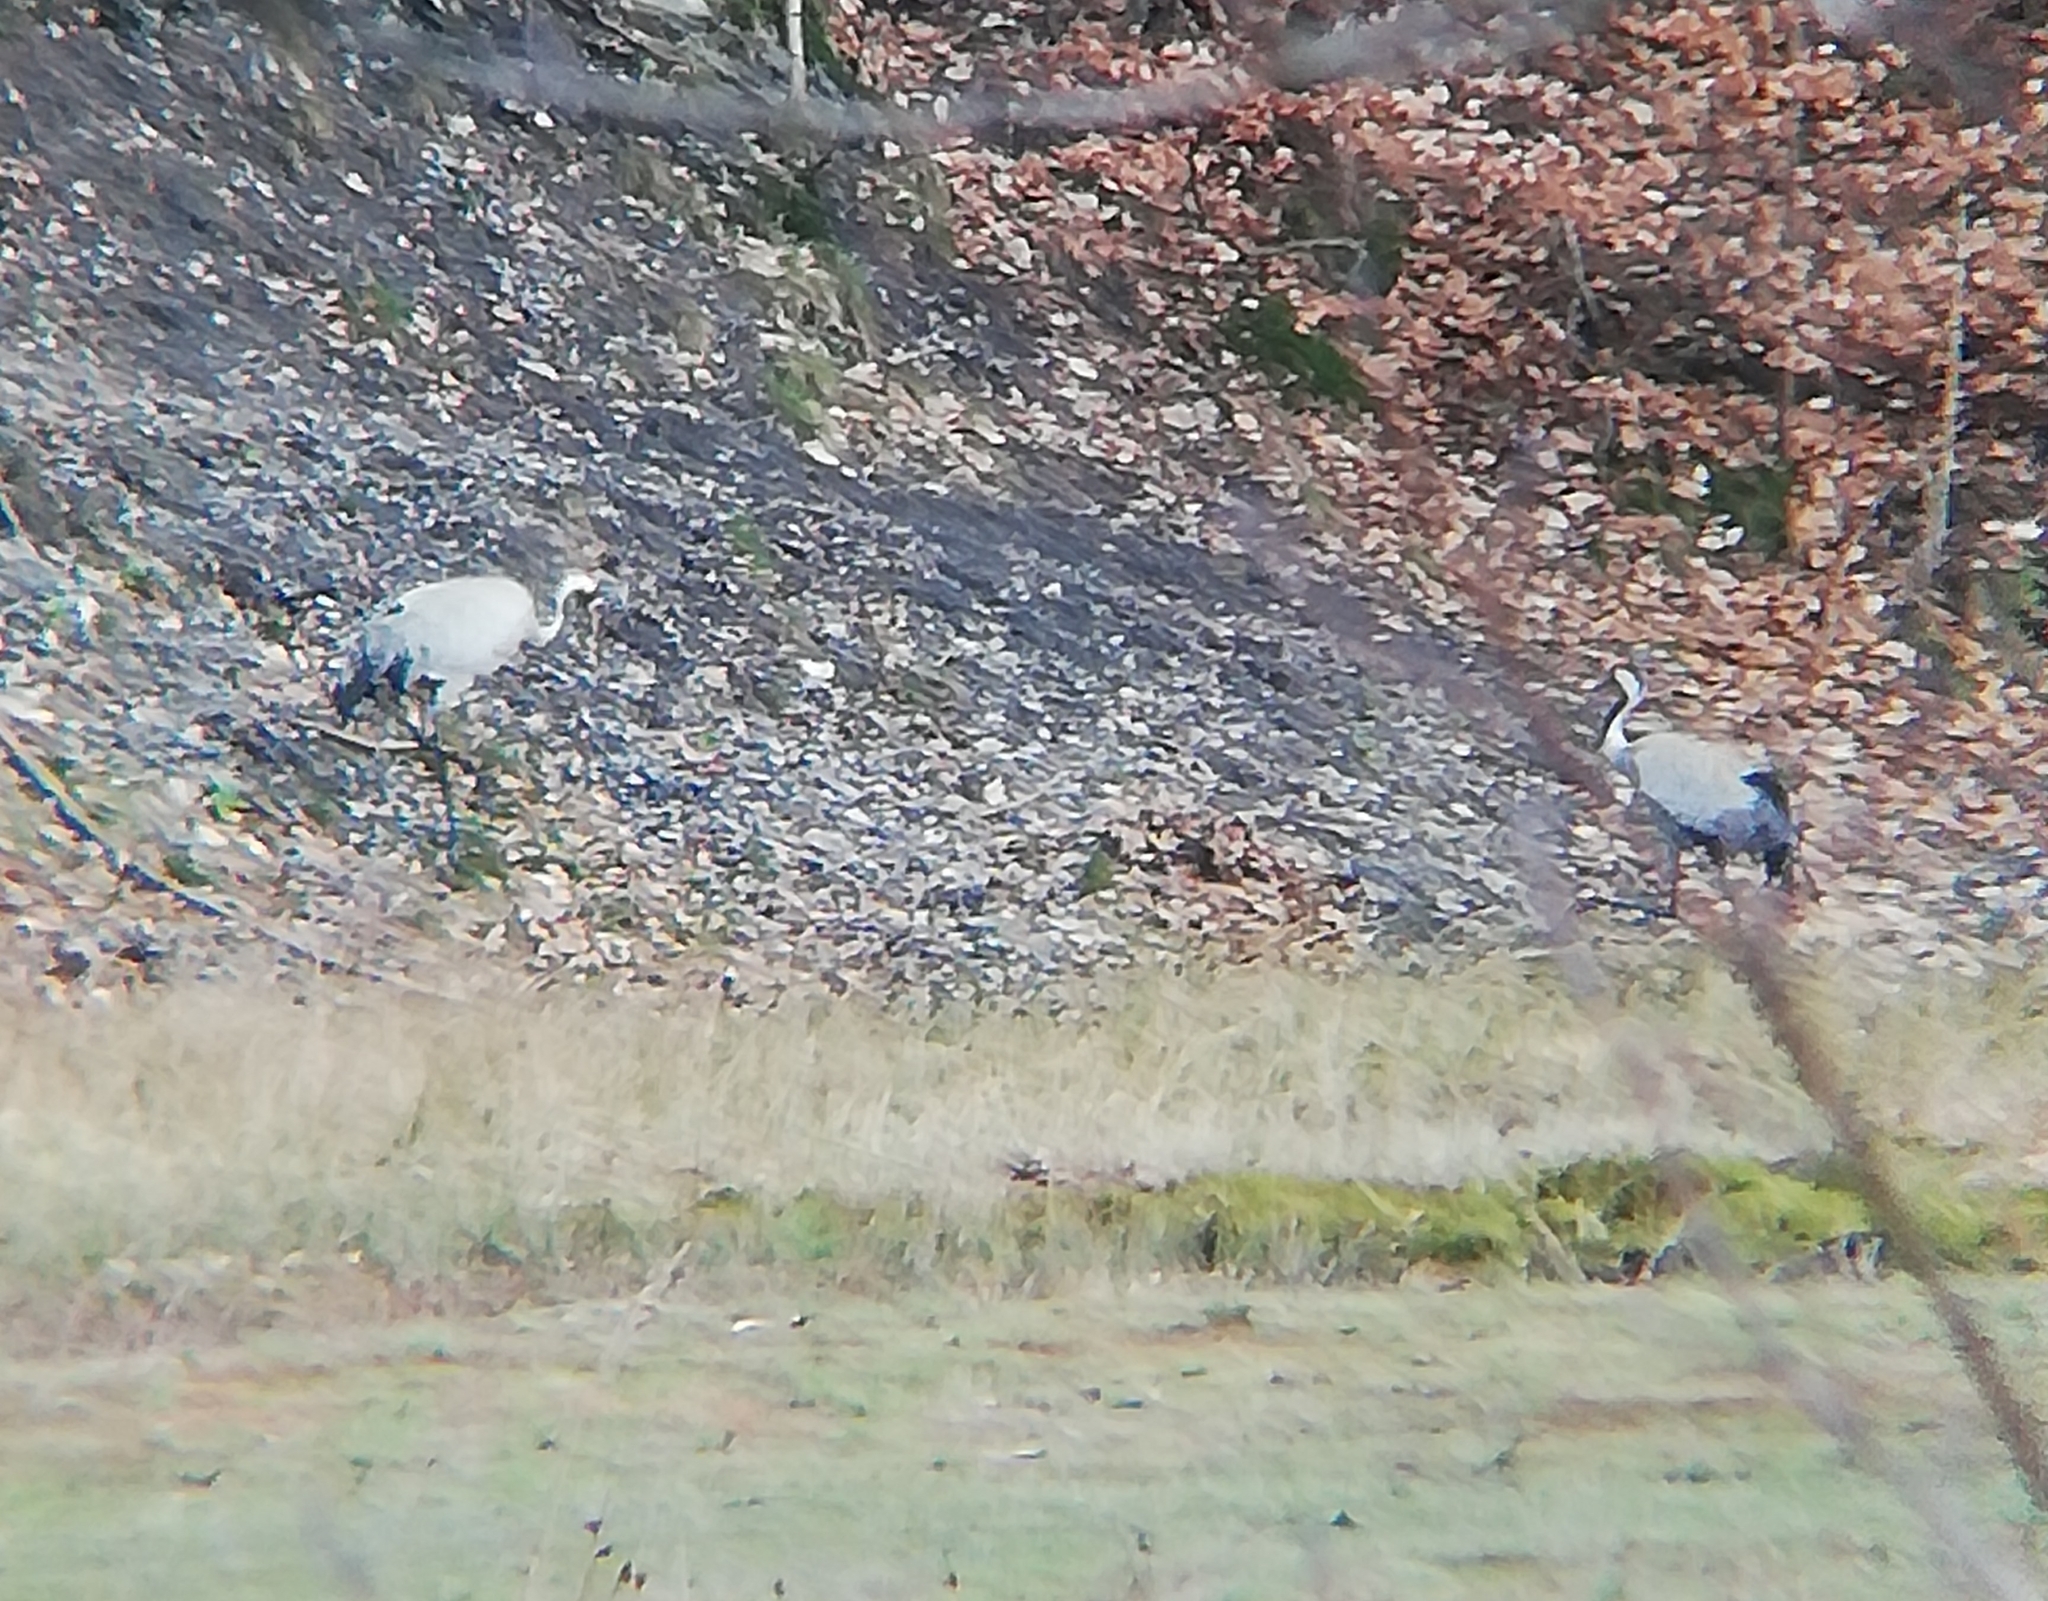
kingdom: Animalia
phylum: Chordata
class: Aves
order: Gruiformes
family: Gruidae
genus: Grus
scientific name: Grus grus
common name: Common crane
